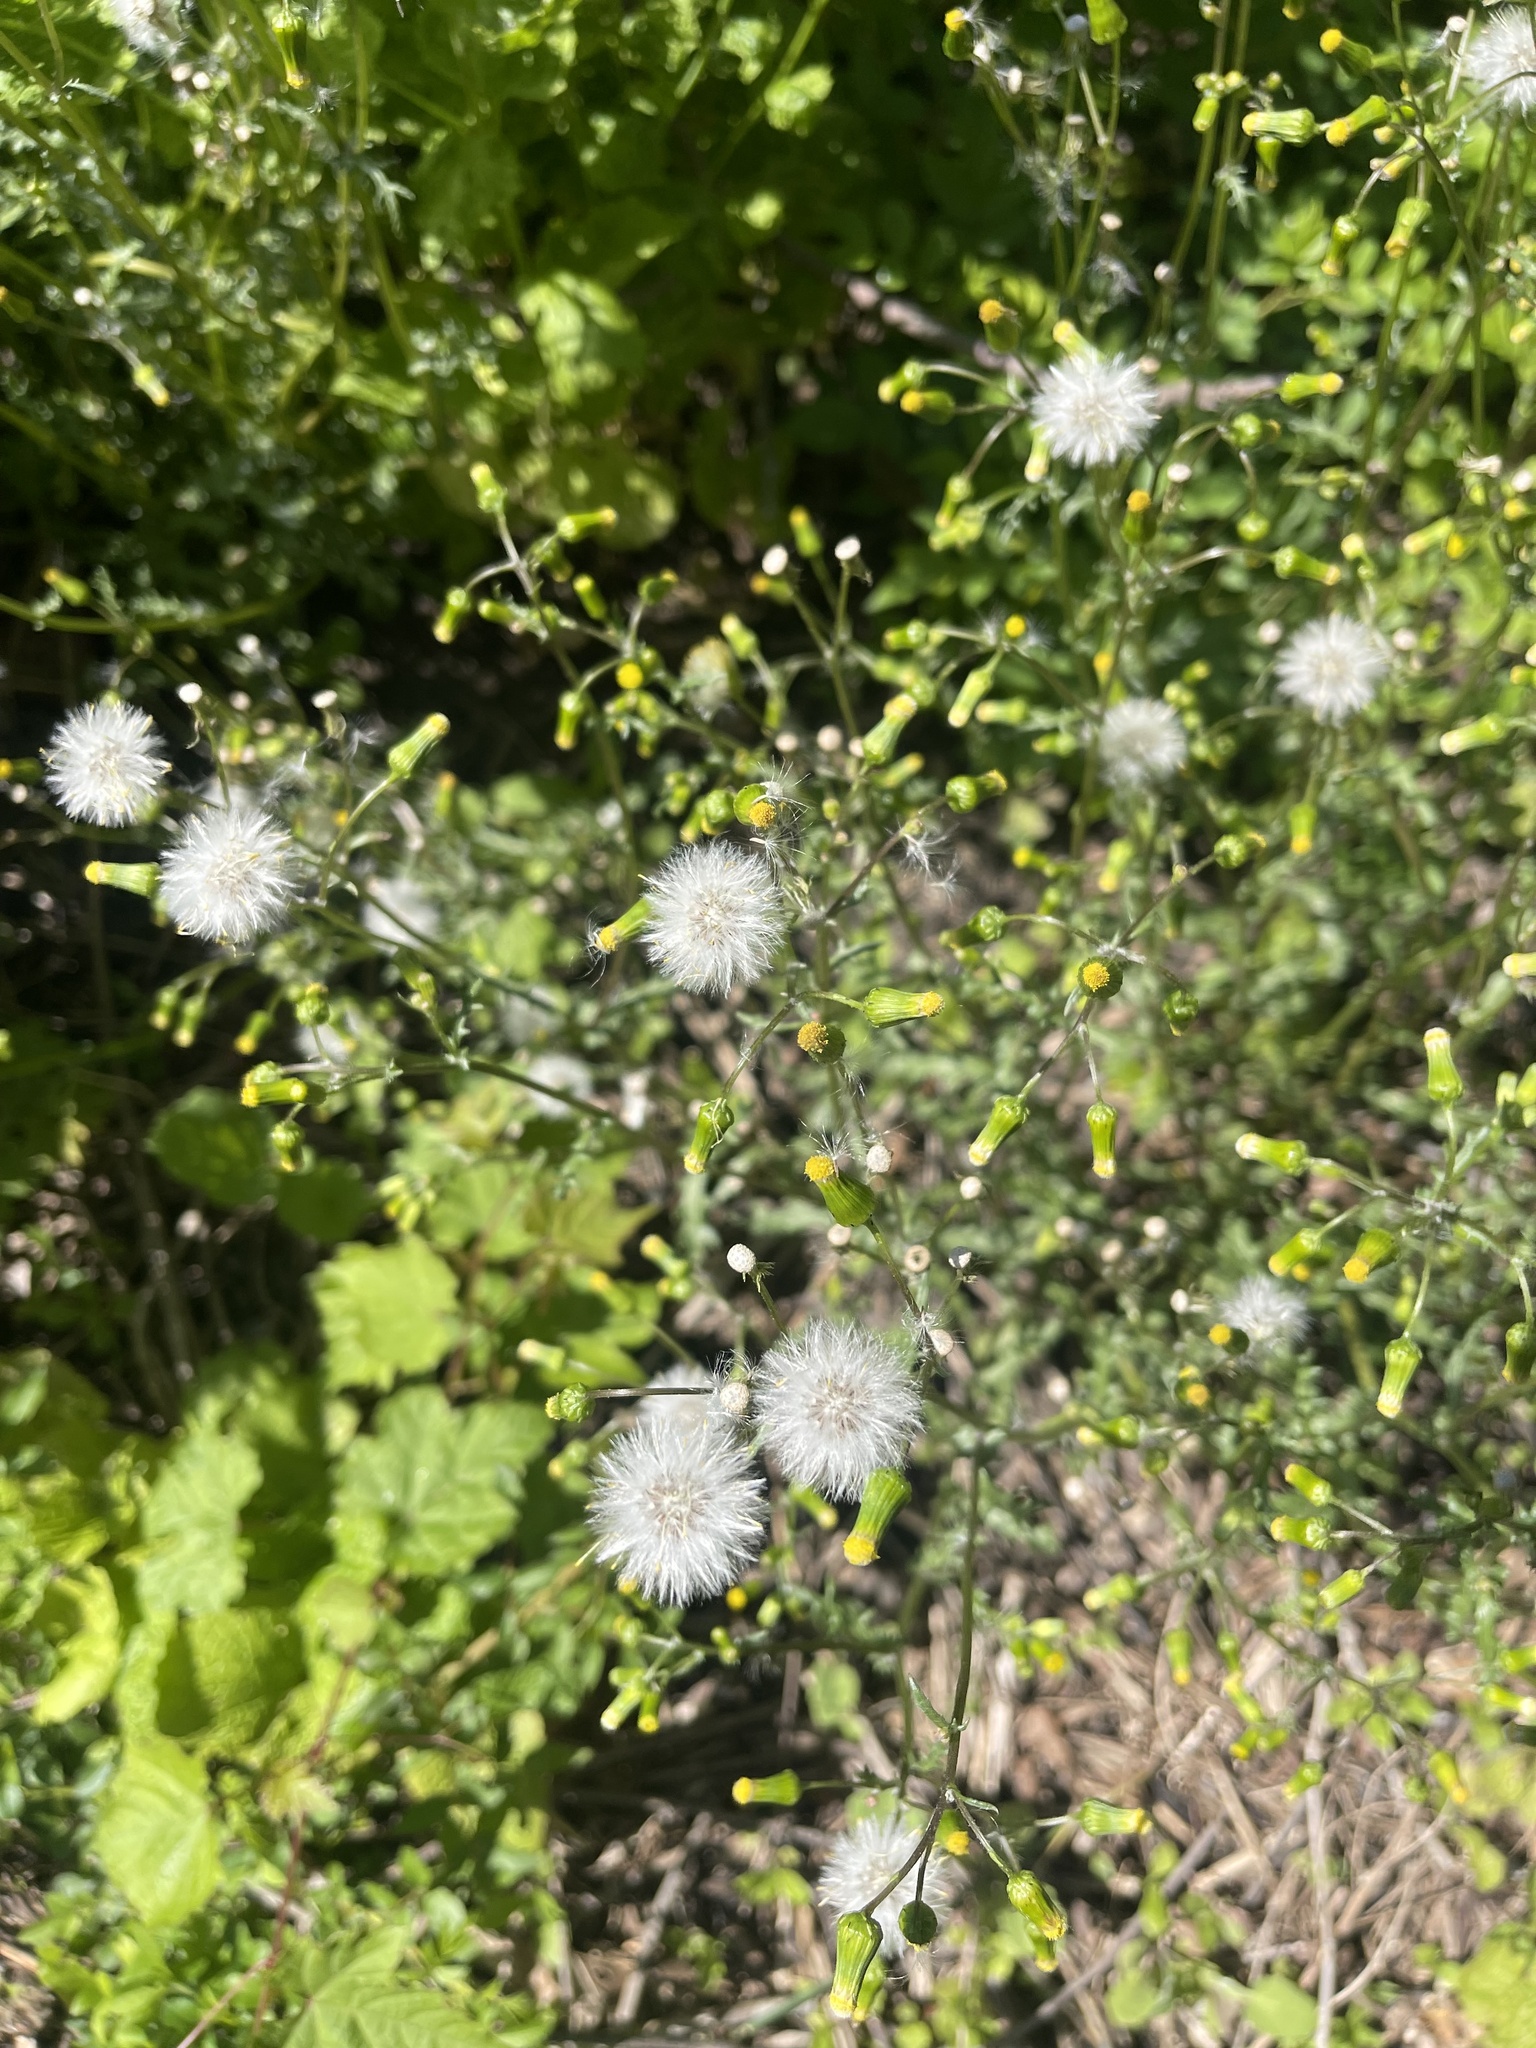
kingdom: Plantae
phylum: Tracheophyta
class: Magnoliopsida
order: Asterales
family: Asteraceae
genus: Senecio
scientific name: Senecio vulgaris
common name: Old-man-in-the-spring
